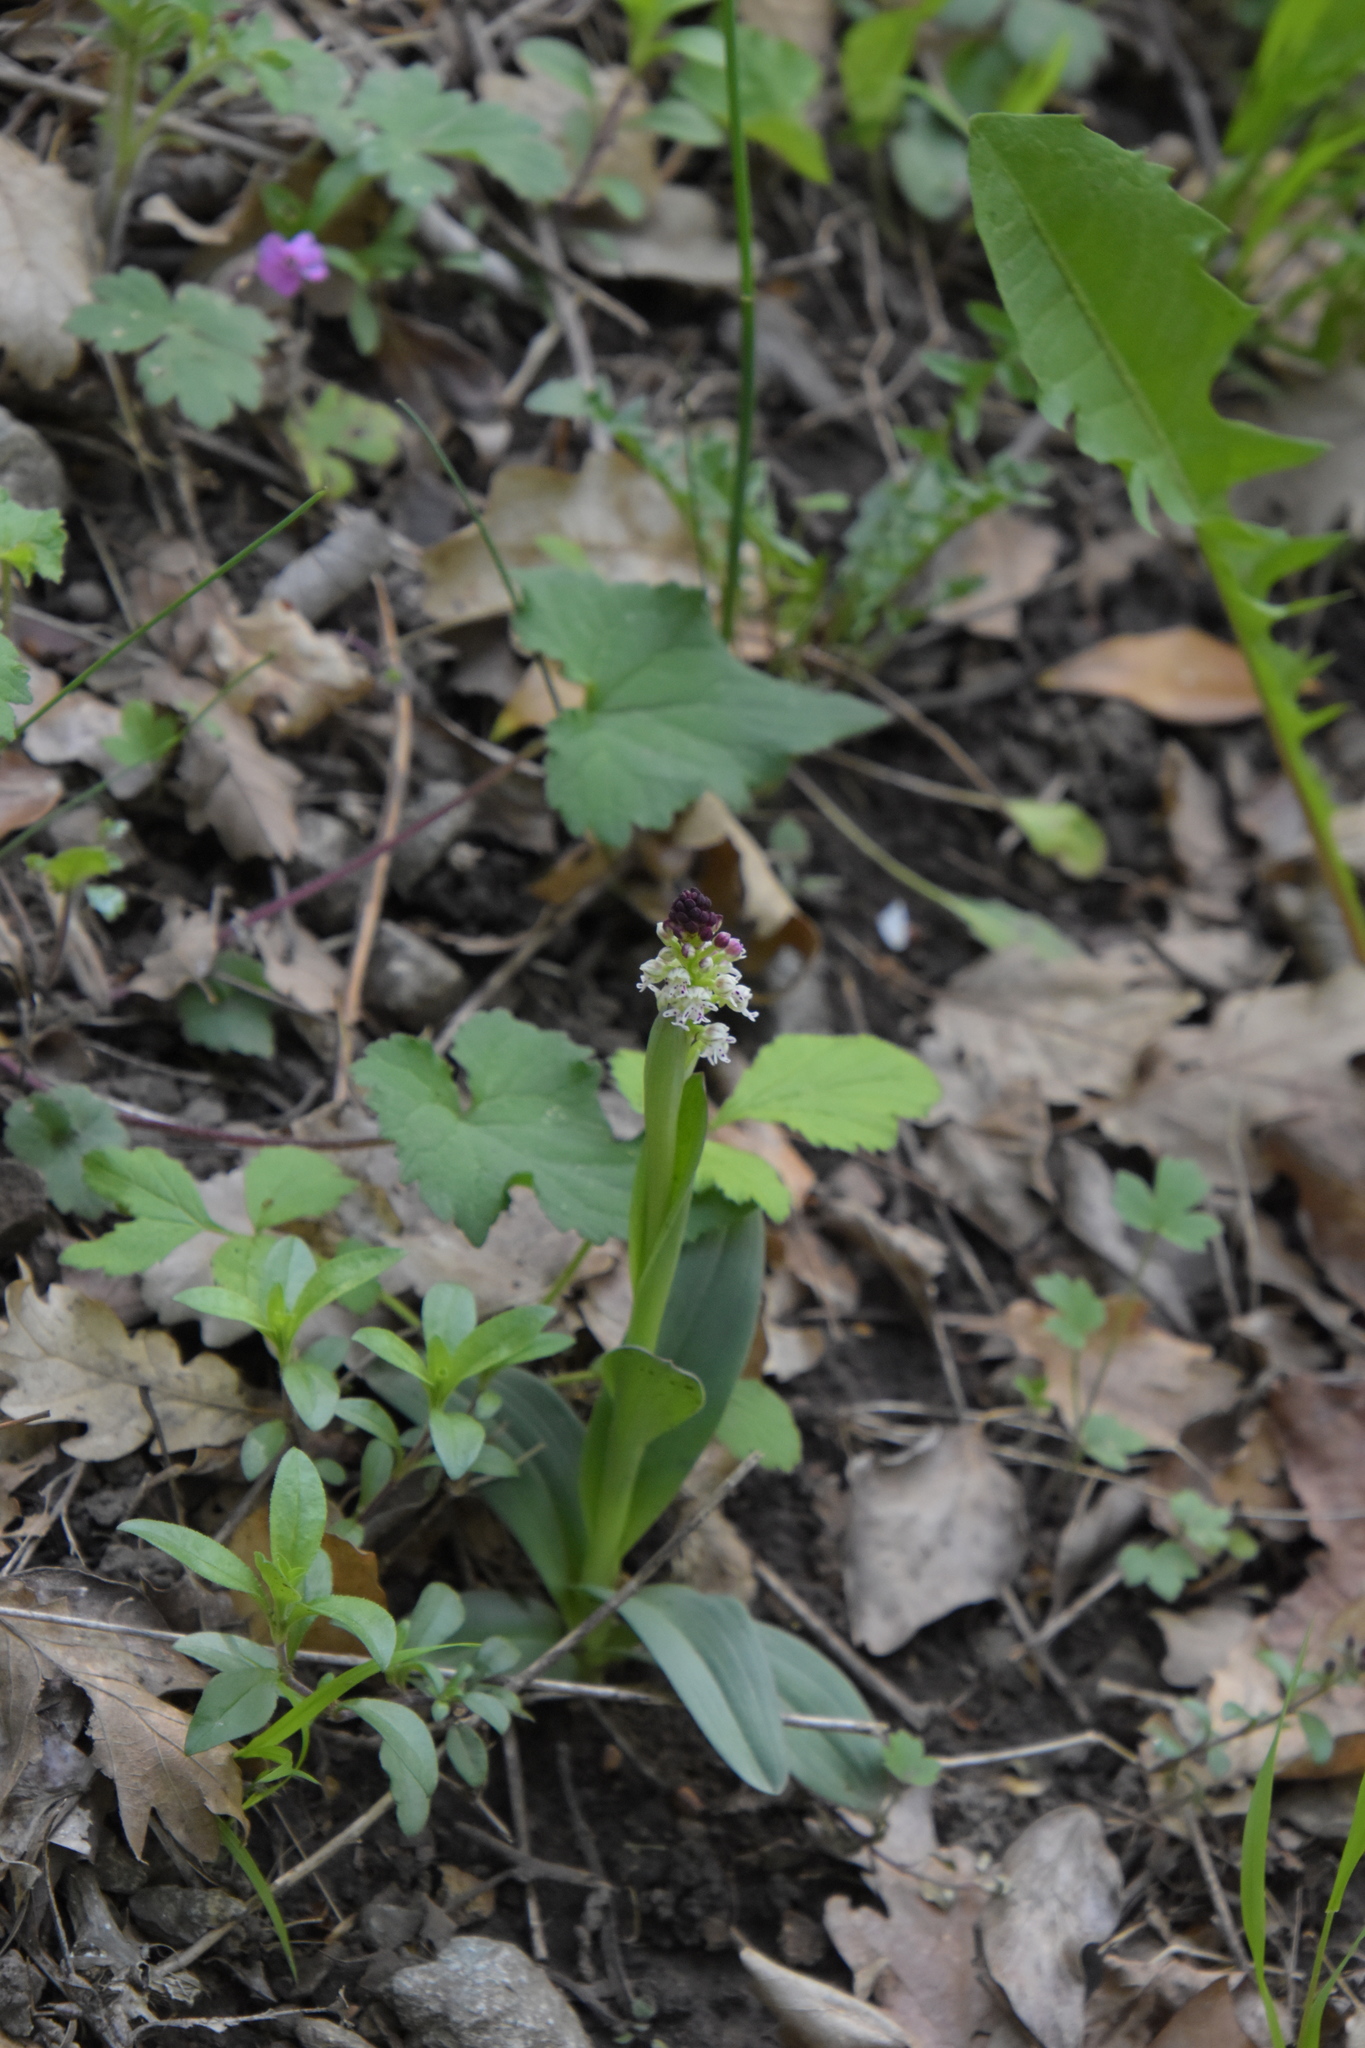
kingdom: Plantae
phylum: Tracheophyta
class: Liliopsida
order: Asparagales
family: Orchidaceae
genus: Neotinea
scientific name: Neotinea ustulata
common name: Burnt orchid
